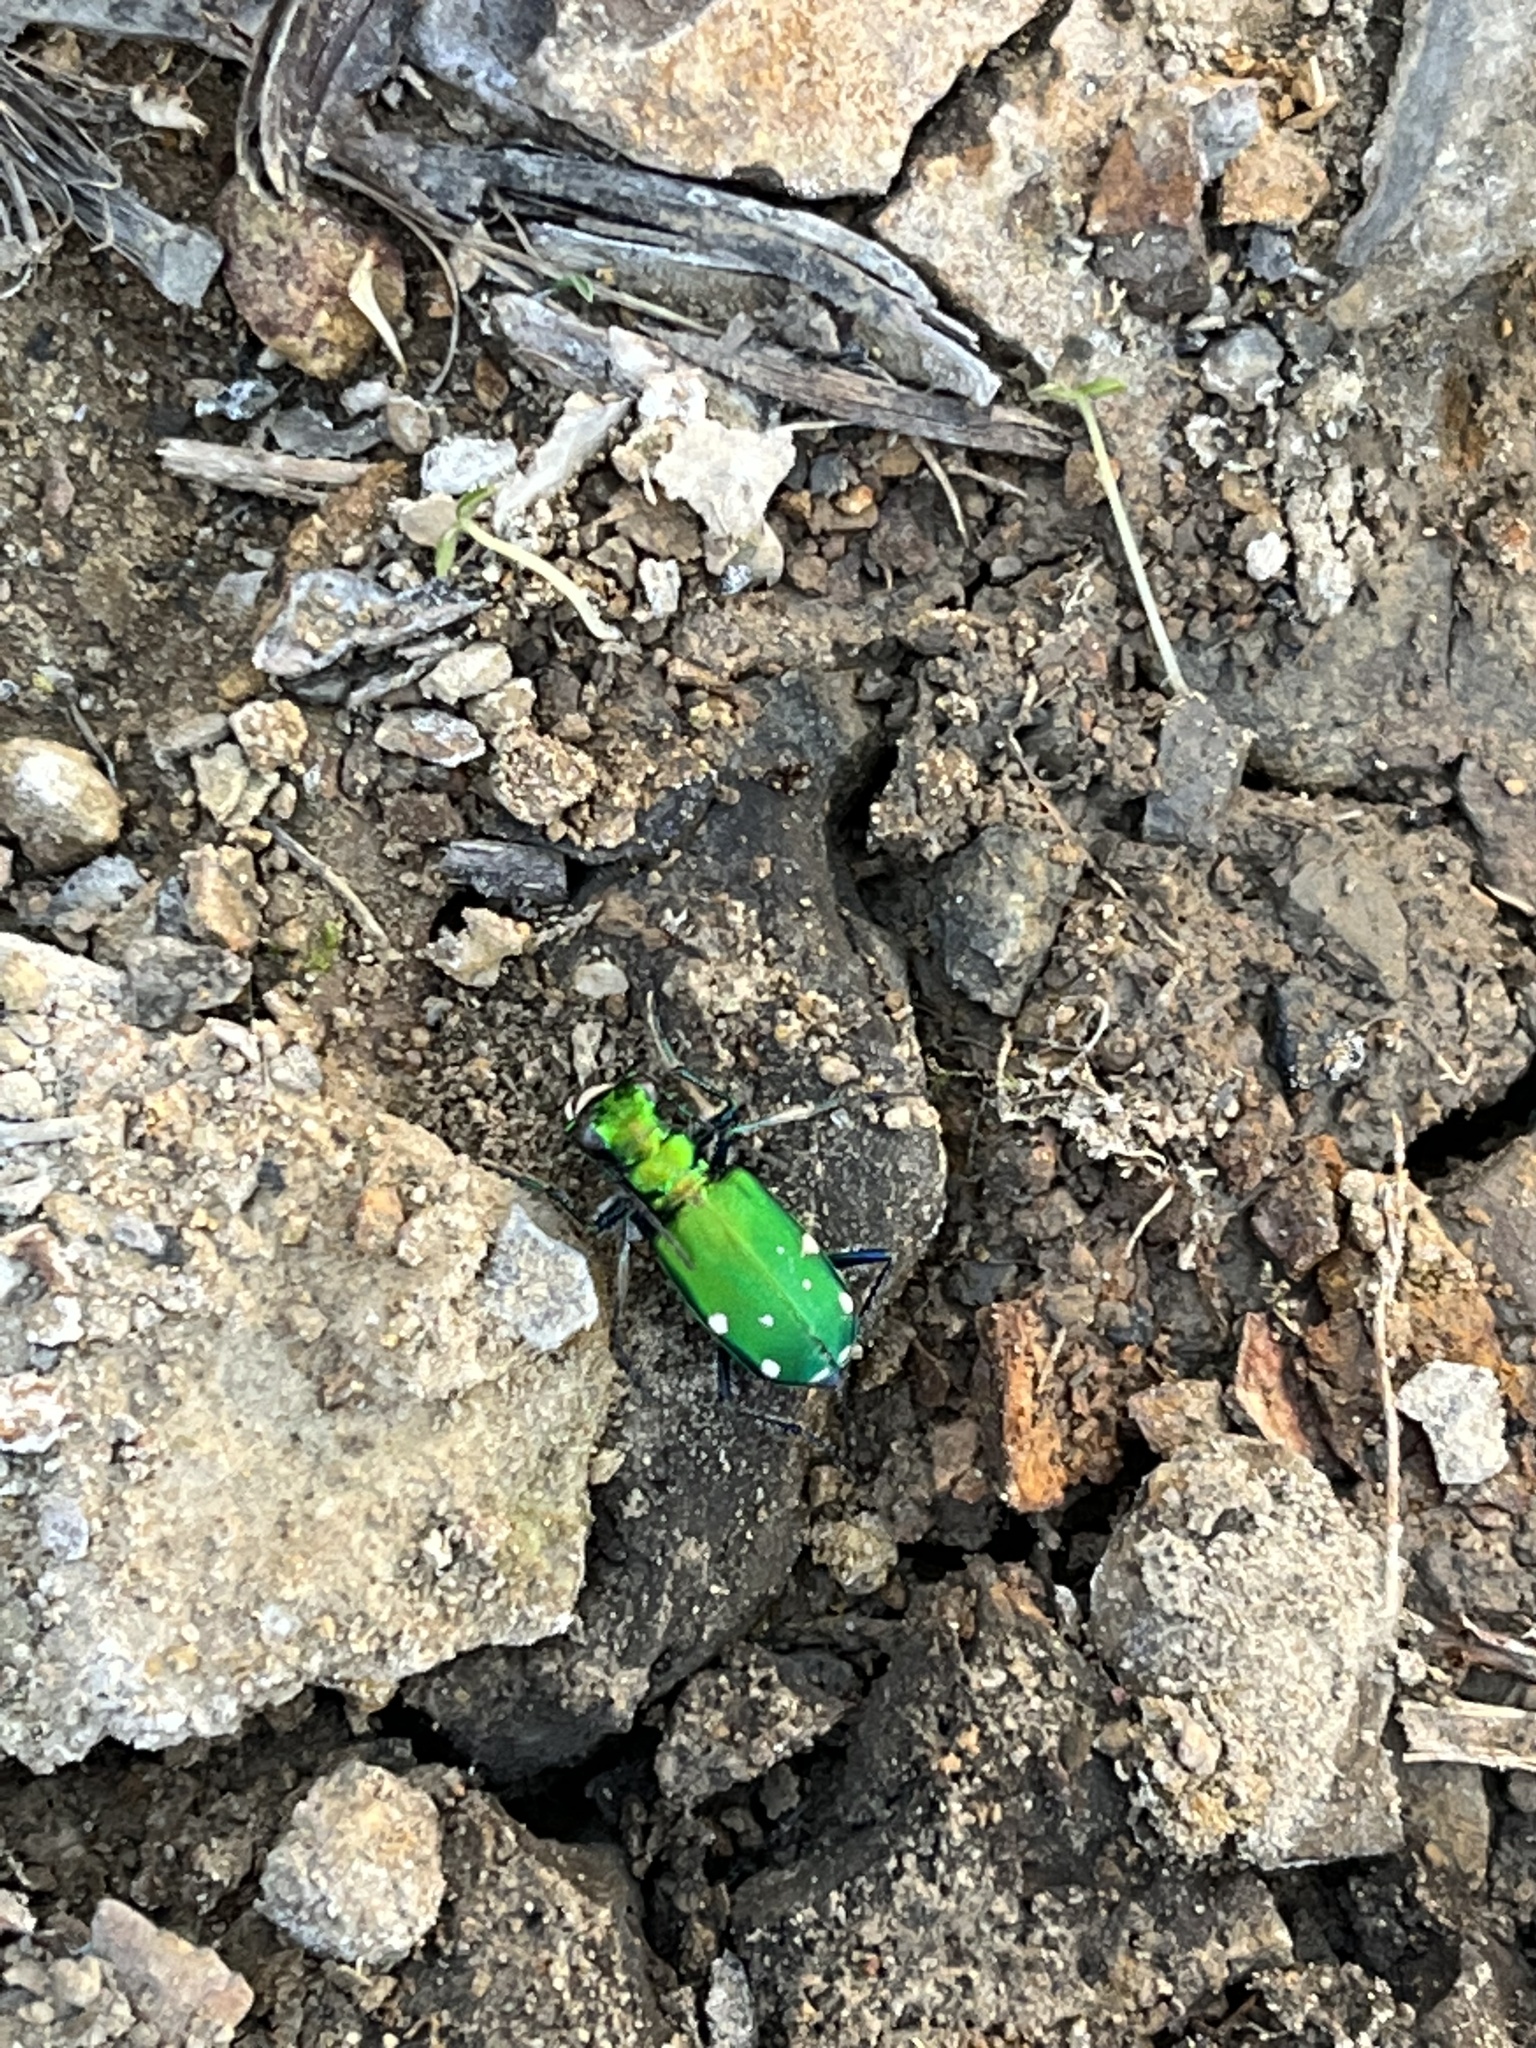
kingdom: Animalia
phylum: Arthropoda
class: Insecta
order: Coleoptera
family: Carabidae
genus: Cicindela
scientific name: Cicindela sexguttata
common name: Six-spotted tiger beetle
